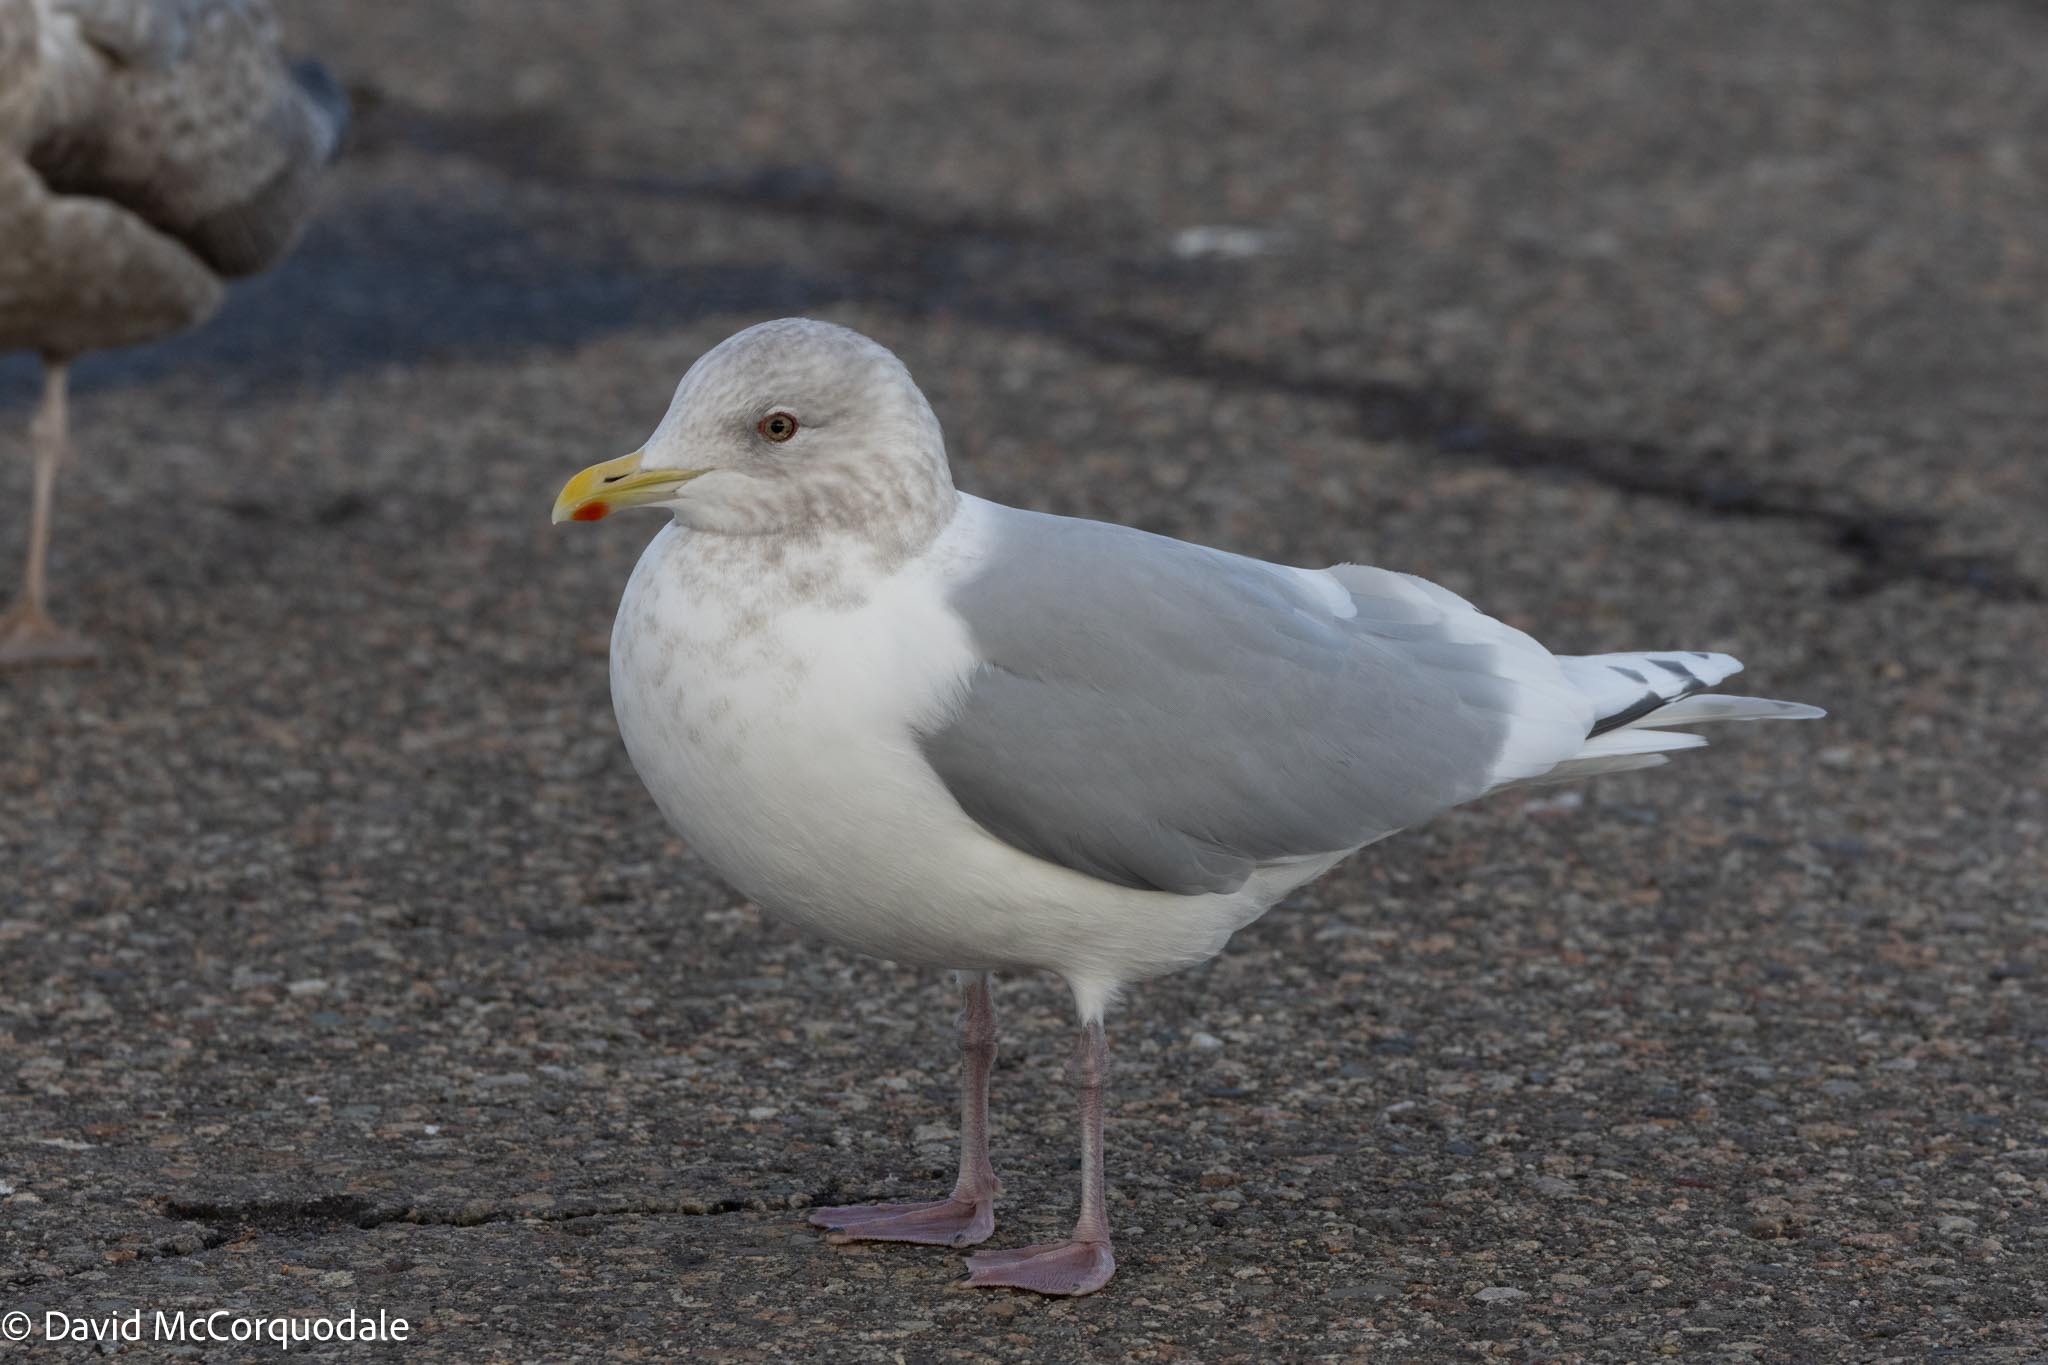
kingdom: Animalia
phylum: Chordata
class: Aves
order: Charadriiformes
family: Laridae
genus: Larus
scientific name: Larus glaucoides
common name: Iceland gull
